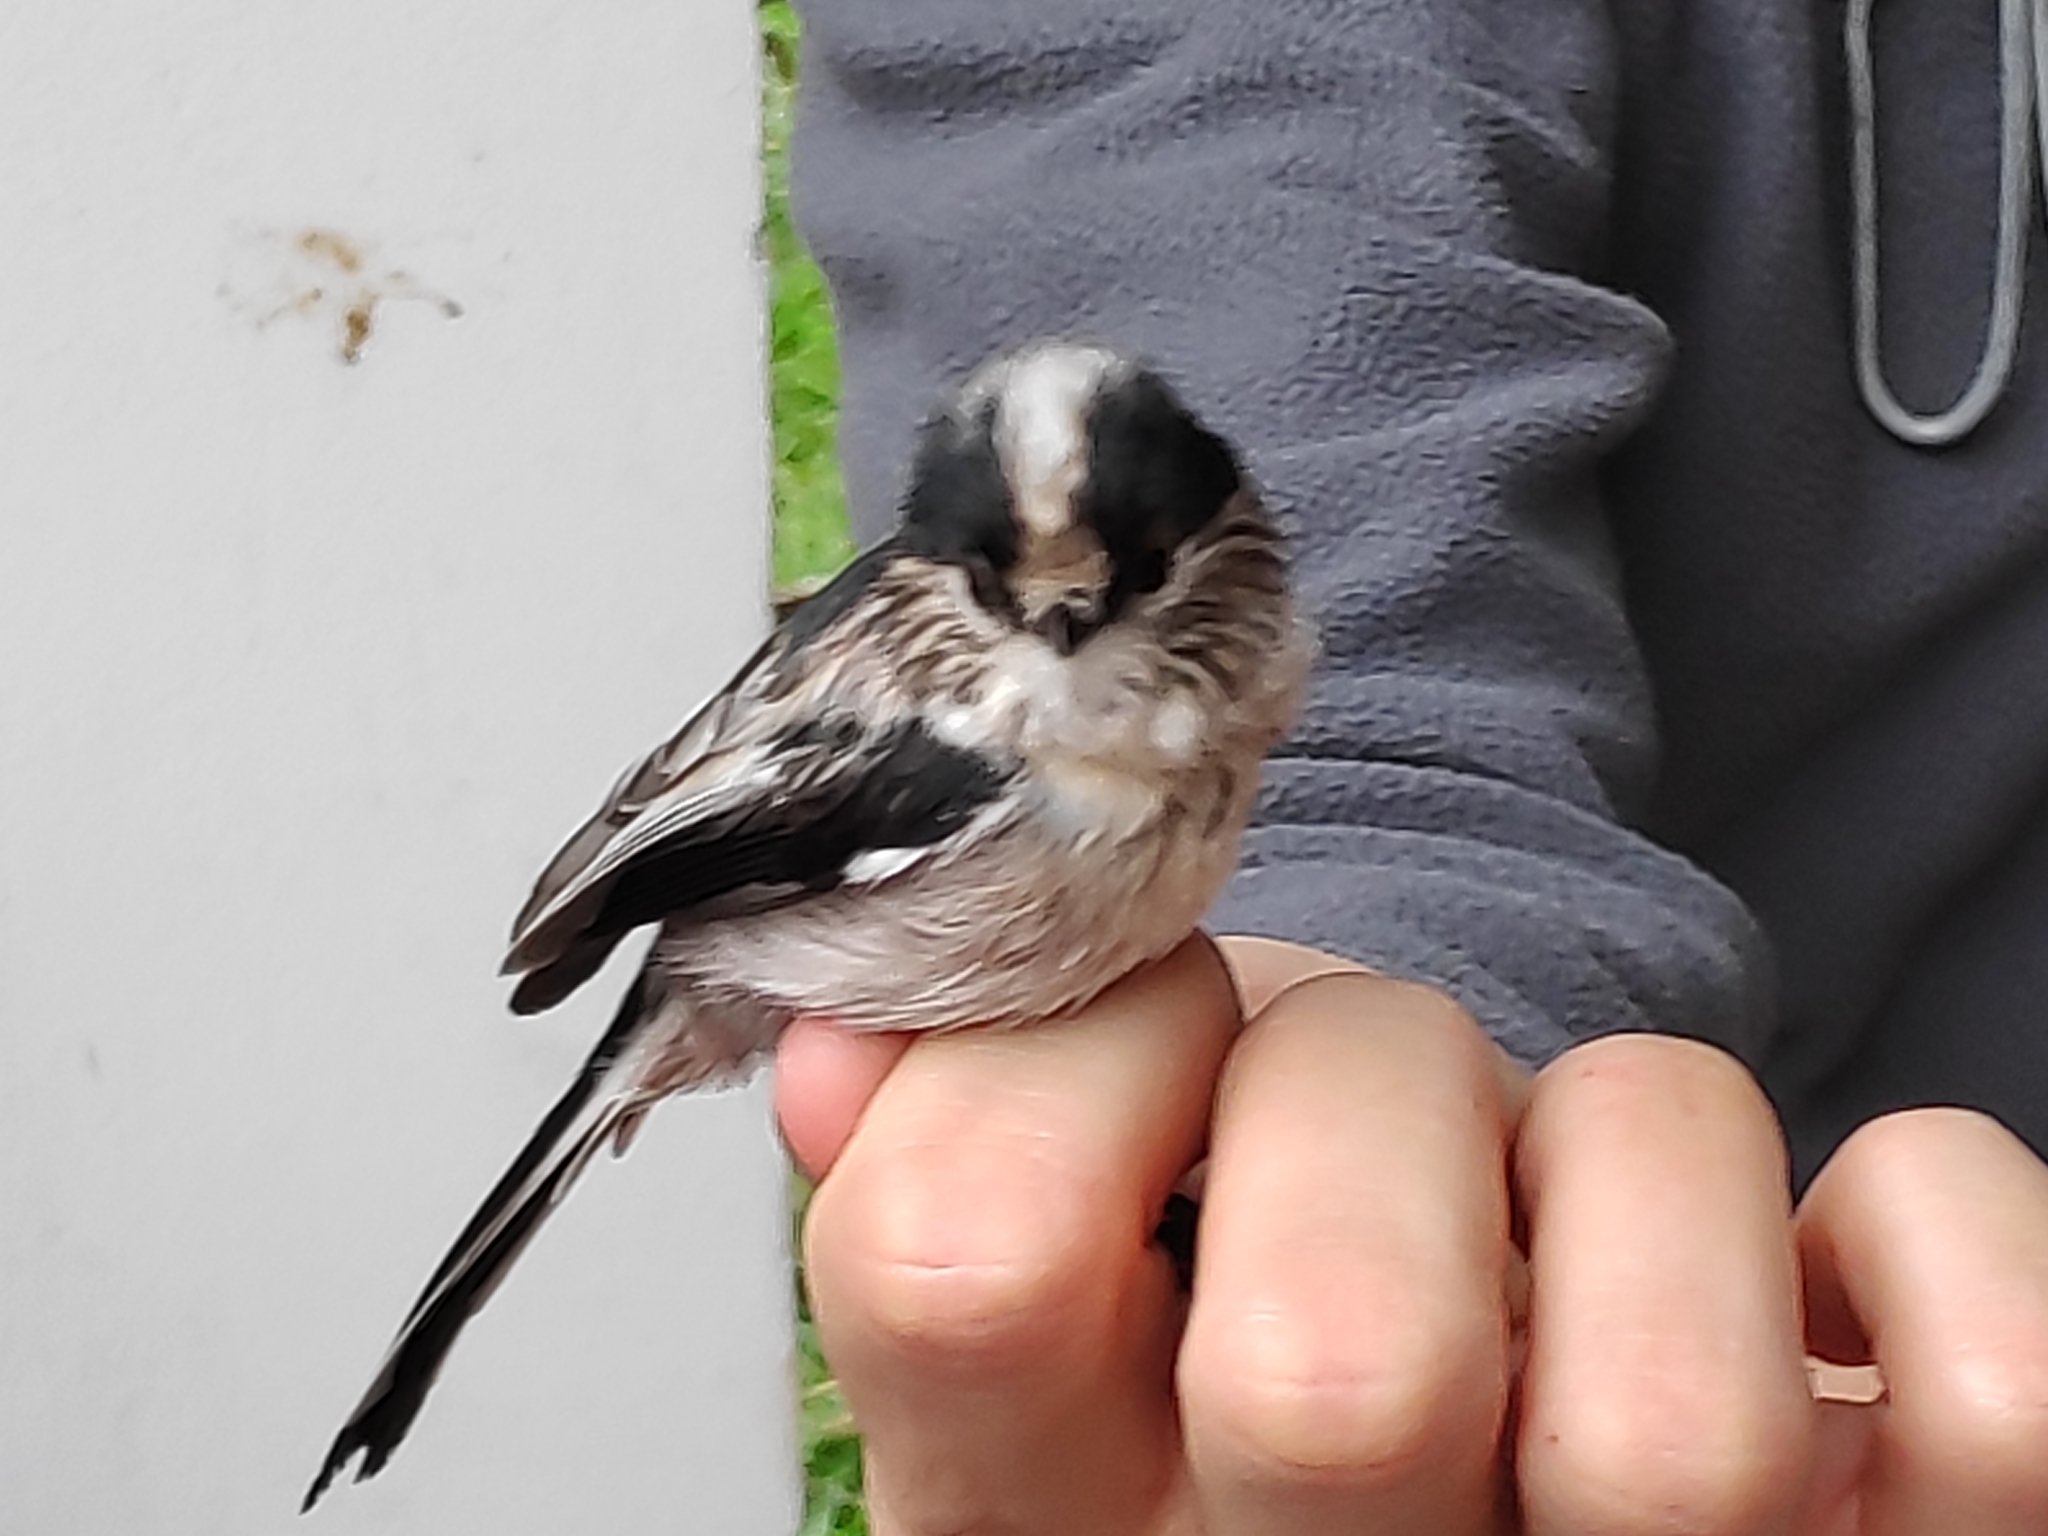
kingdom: Animalia
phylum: Chordata
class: Aves
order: Passeriformes
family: Aegithalidae
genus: Aegithalos
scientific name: Aegithalos caudatus
